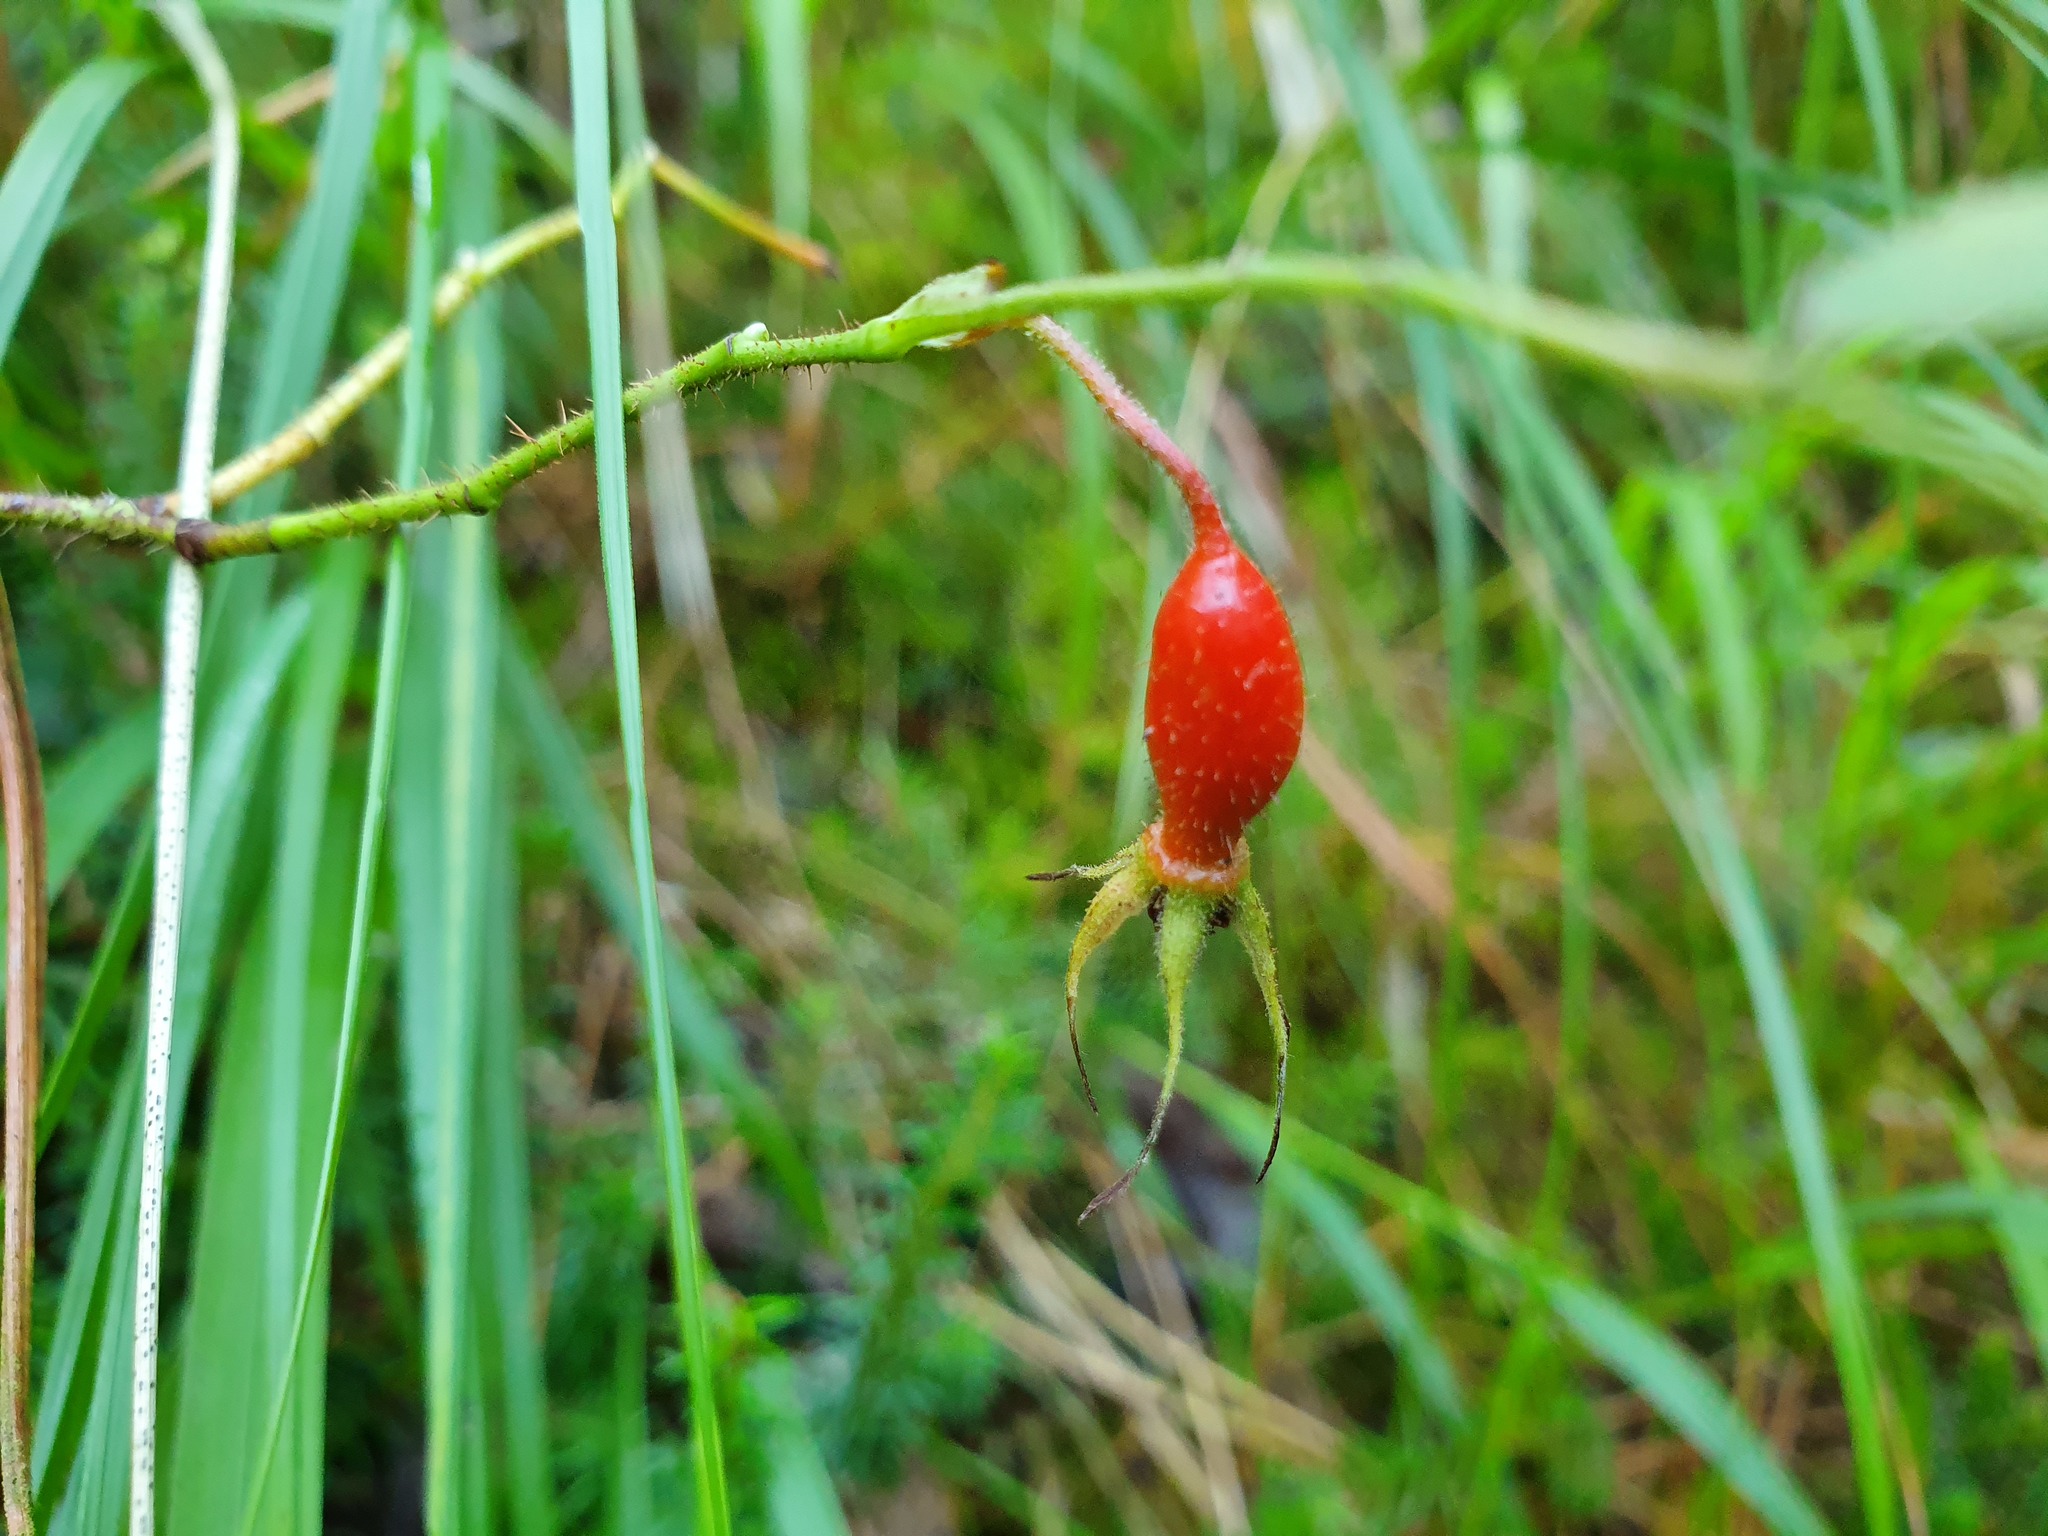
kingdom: Plantae
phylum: Tracheophyta
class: Magnoliopsida
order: Rosales
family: Rosaceae
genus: Rosa
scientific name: Rosa pendulina
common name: Alpine rose
